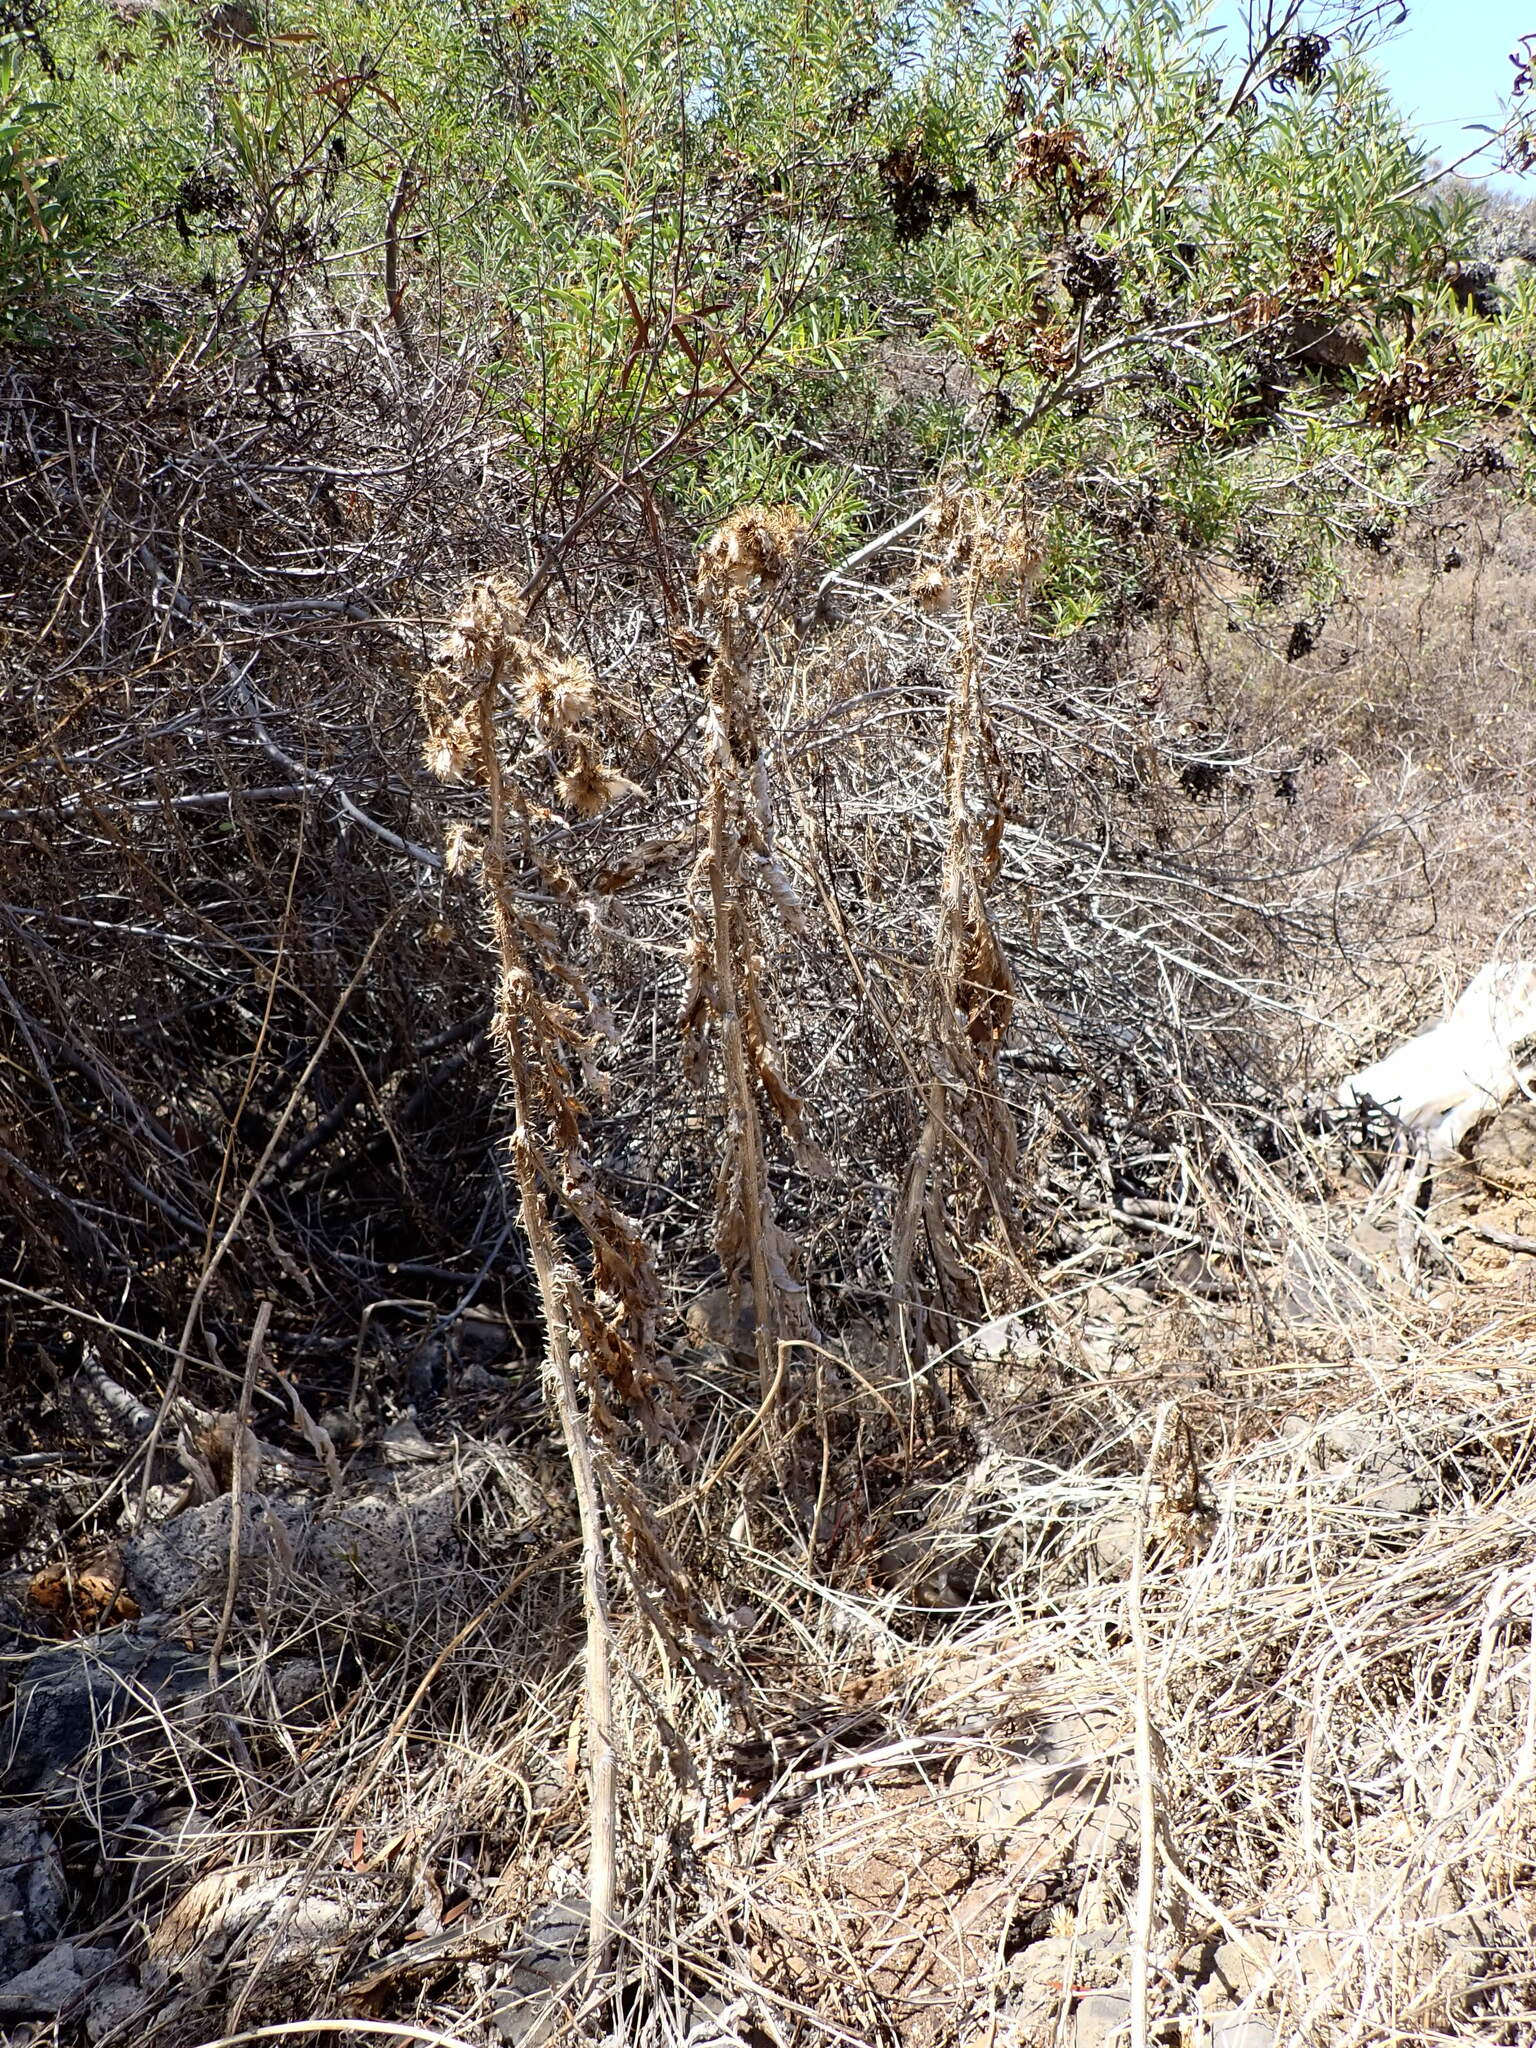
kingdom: Plantae
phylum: Tracheophyta
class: Magnoliopsida
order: Asterales
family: Asteraceae
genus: Cynara
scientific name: Cynara cardunculus
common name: Globe artichoke
